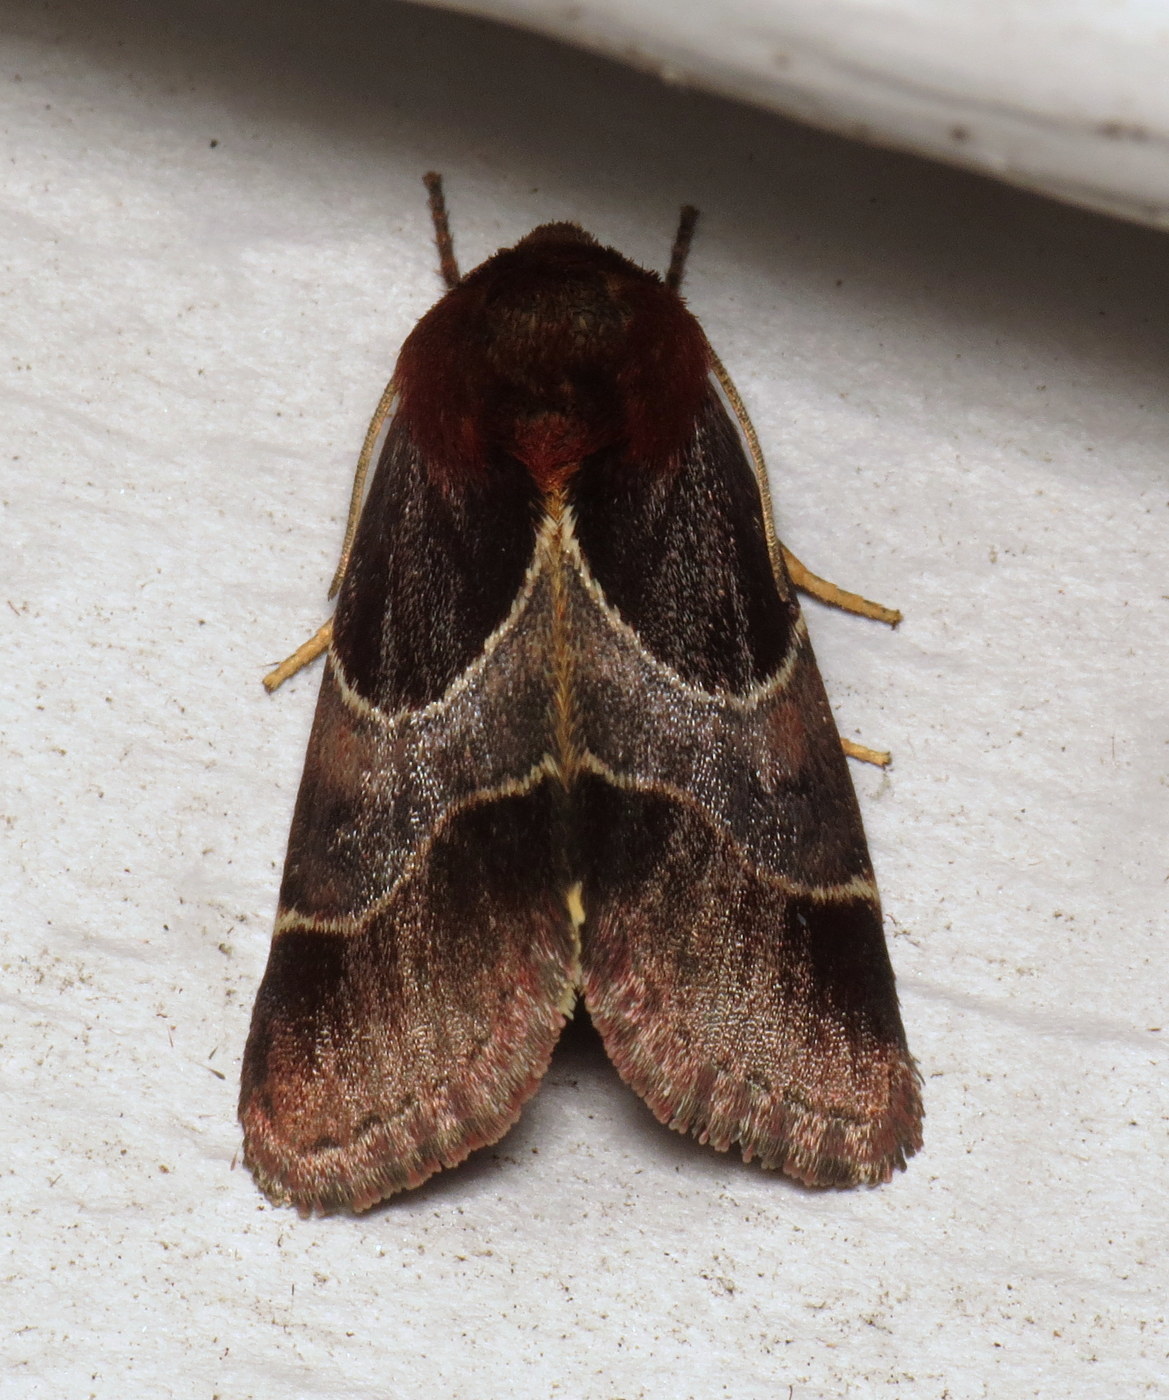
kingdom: Animalia
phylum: Arthropoda
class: Insecta
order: Lepidoptera
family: Noctuidae
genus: Schinia
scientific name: Schinia arcigera
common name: Arcigera flower moth
